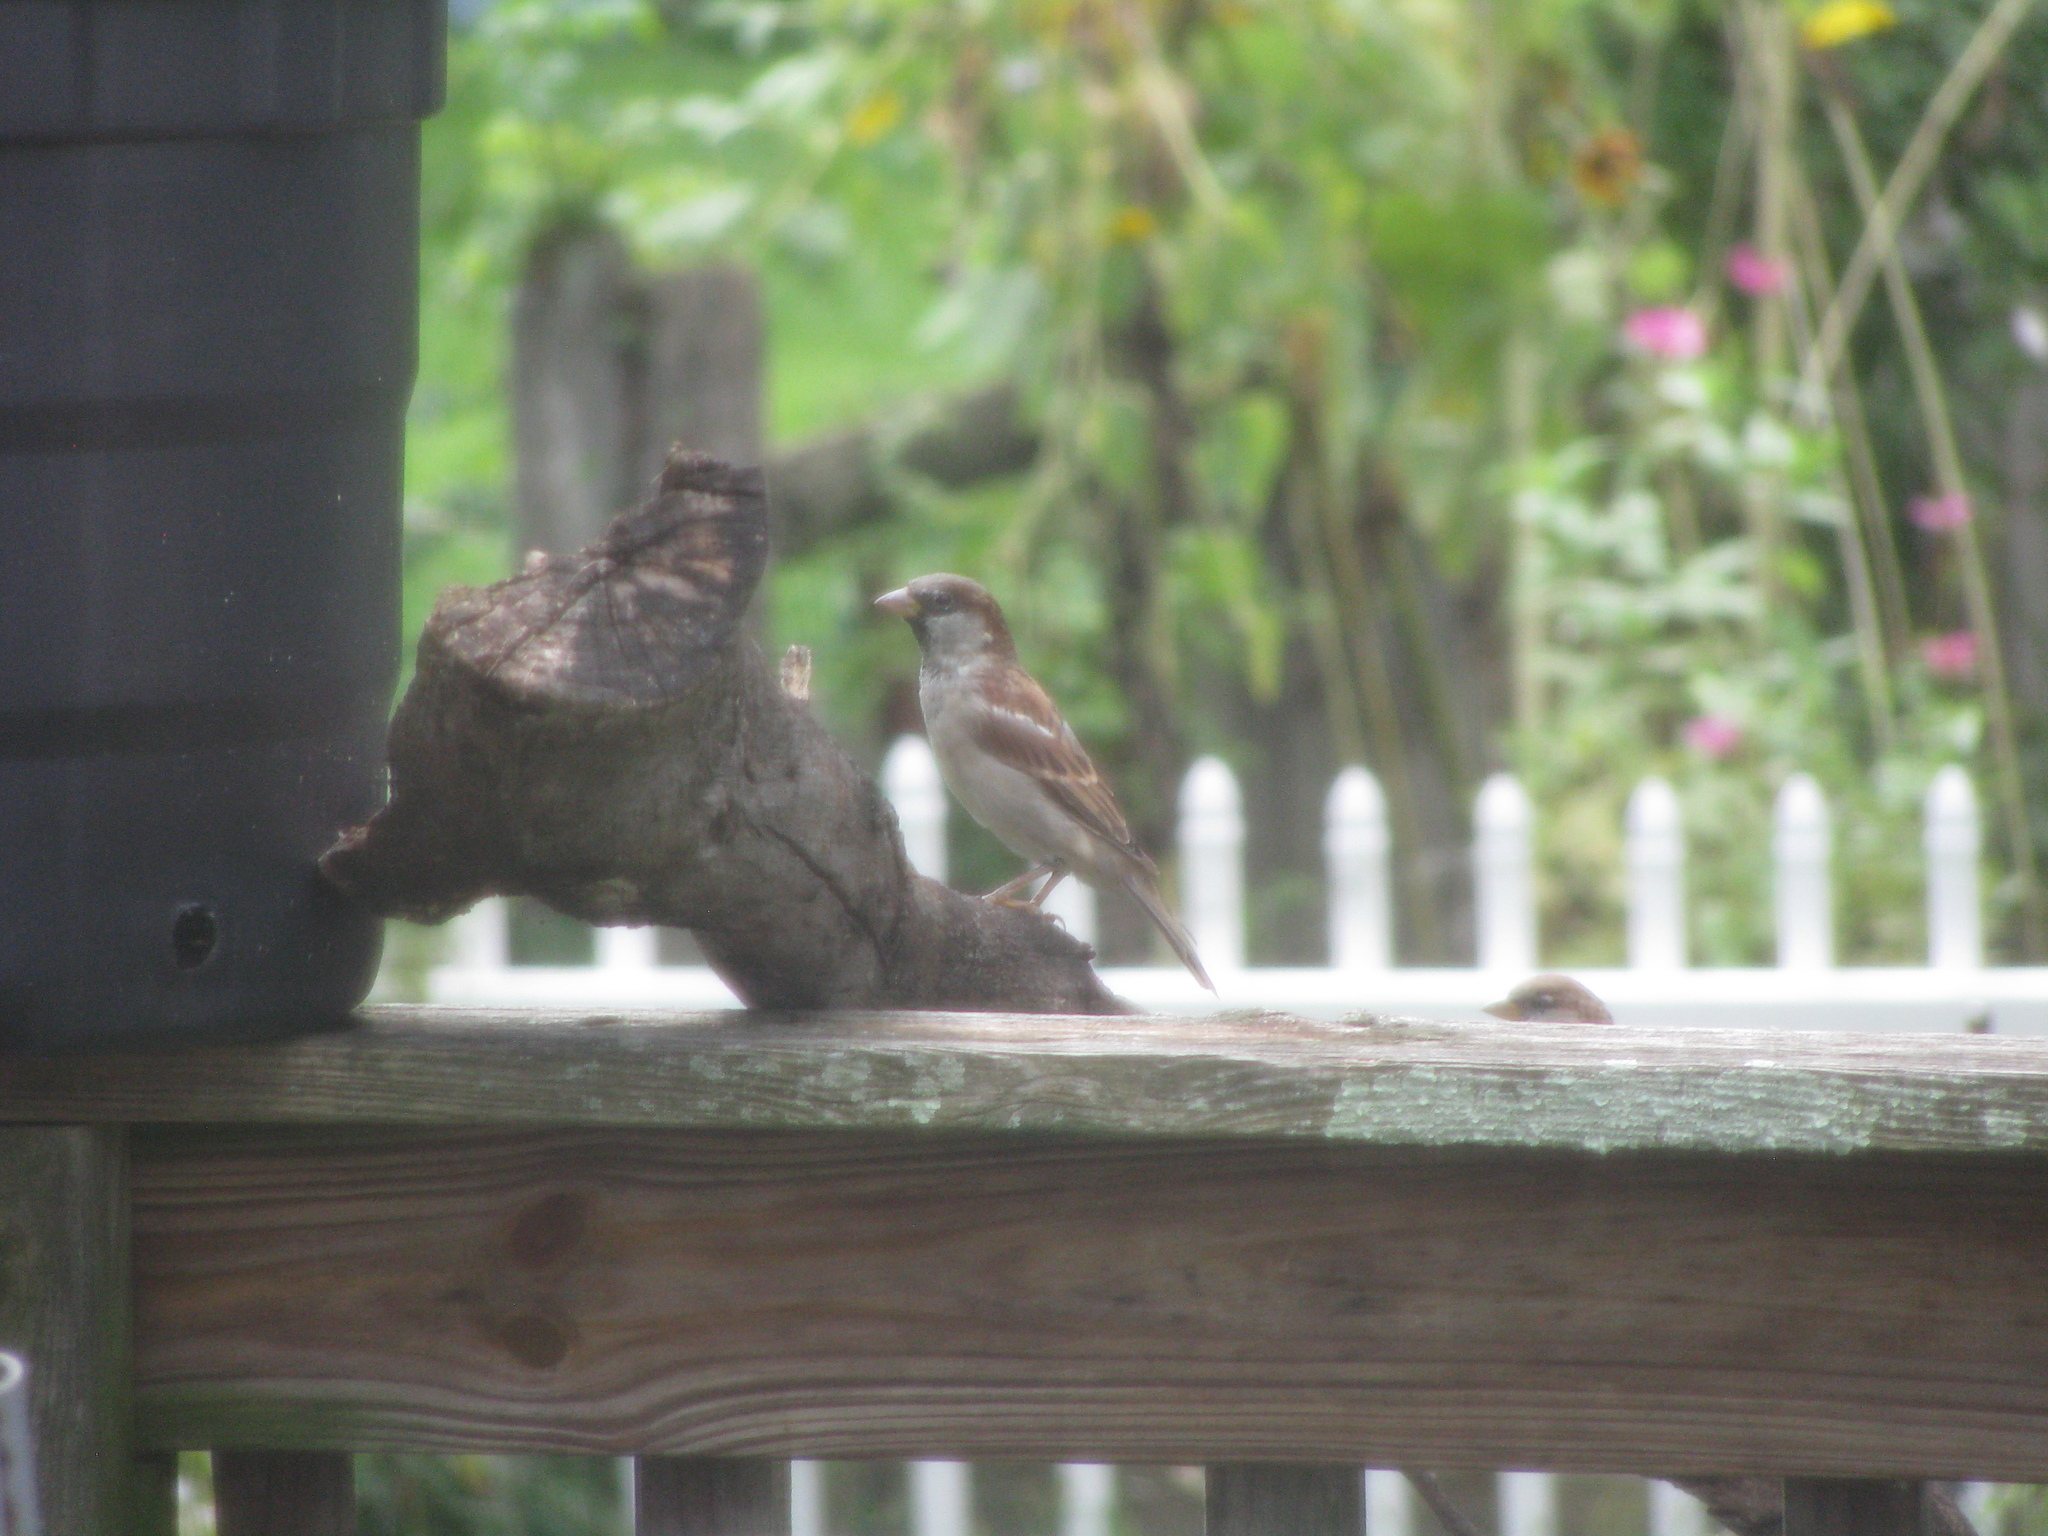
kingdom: Animalia
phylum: Chordata
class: Aves
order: Passeriformes
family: Passeridae
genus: Passer
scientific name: Passer domesticus
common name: House sparrow
